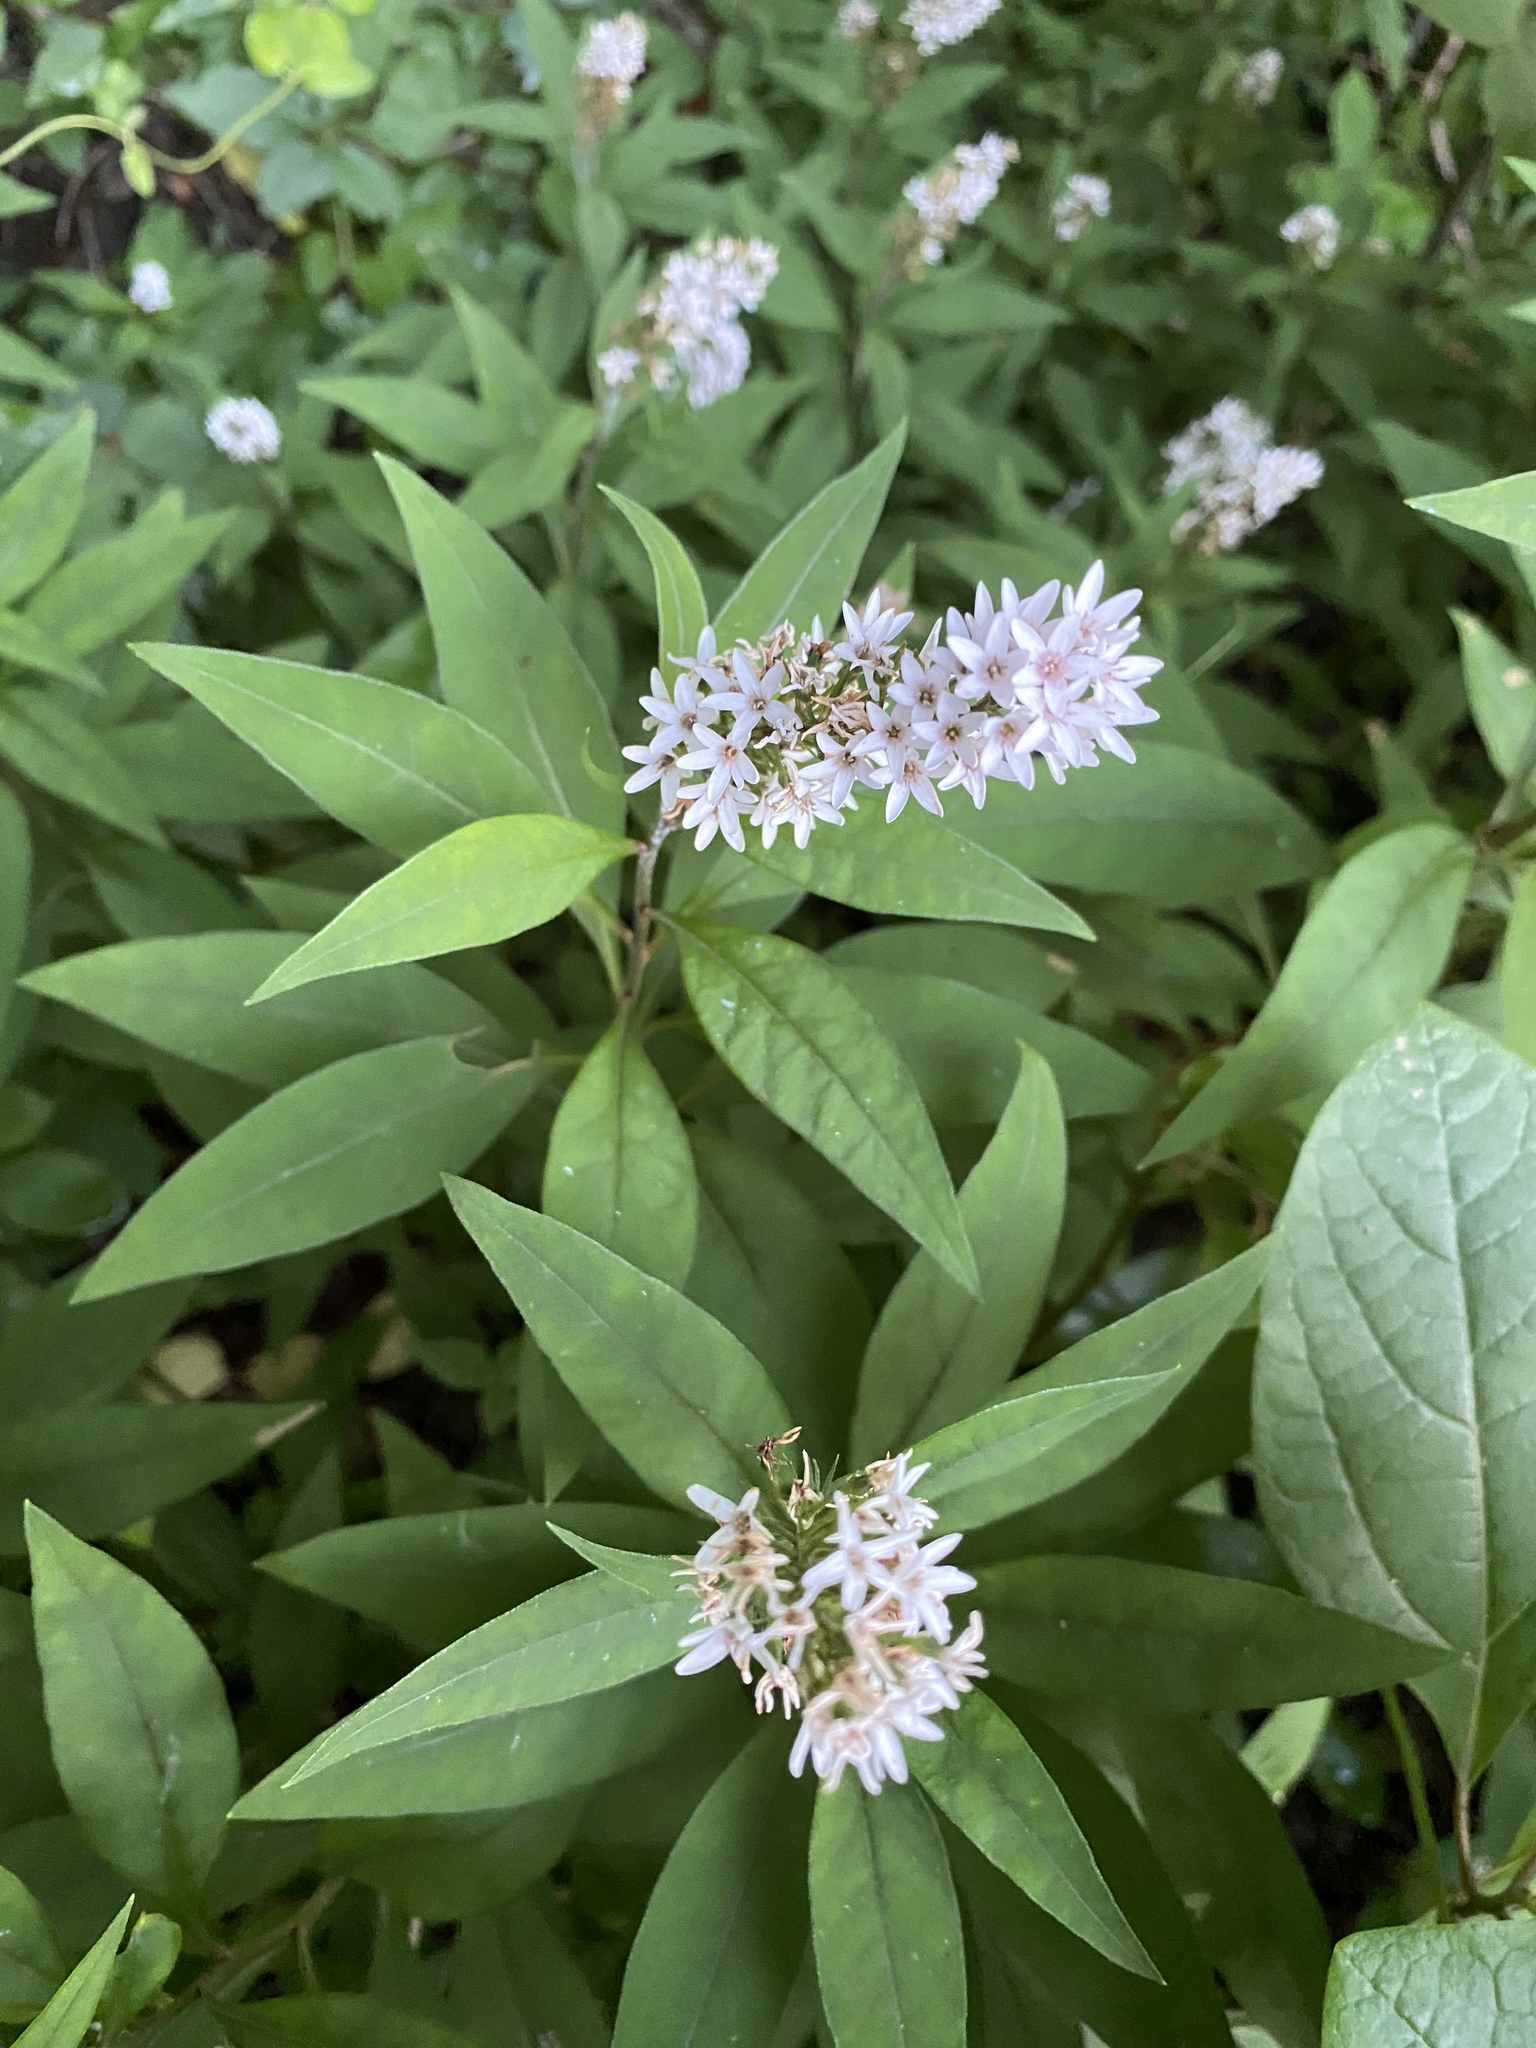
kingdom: Plantae
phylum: Tracheophyta
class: Magnoliopsida
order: Ericales
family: Primulaceae
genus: Lysimachia
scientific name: Lysimachia clethroides
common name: Gooseneck loosestrife
